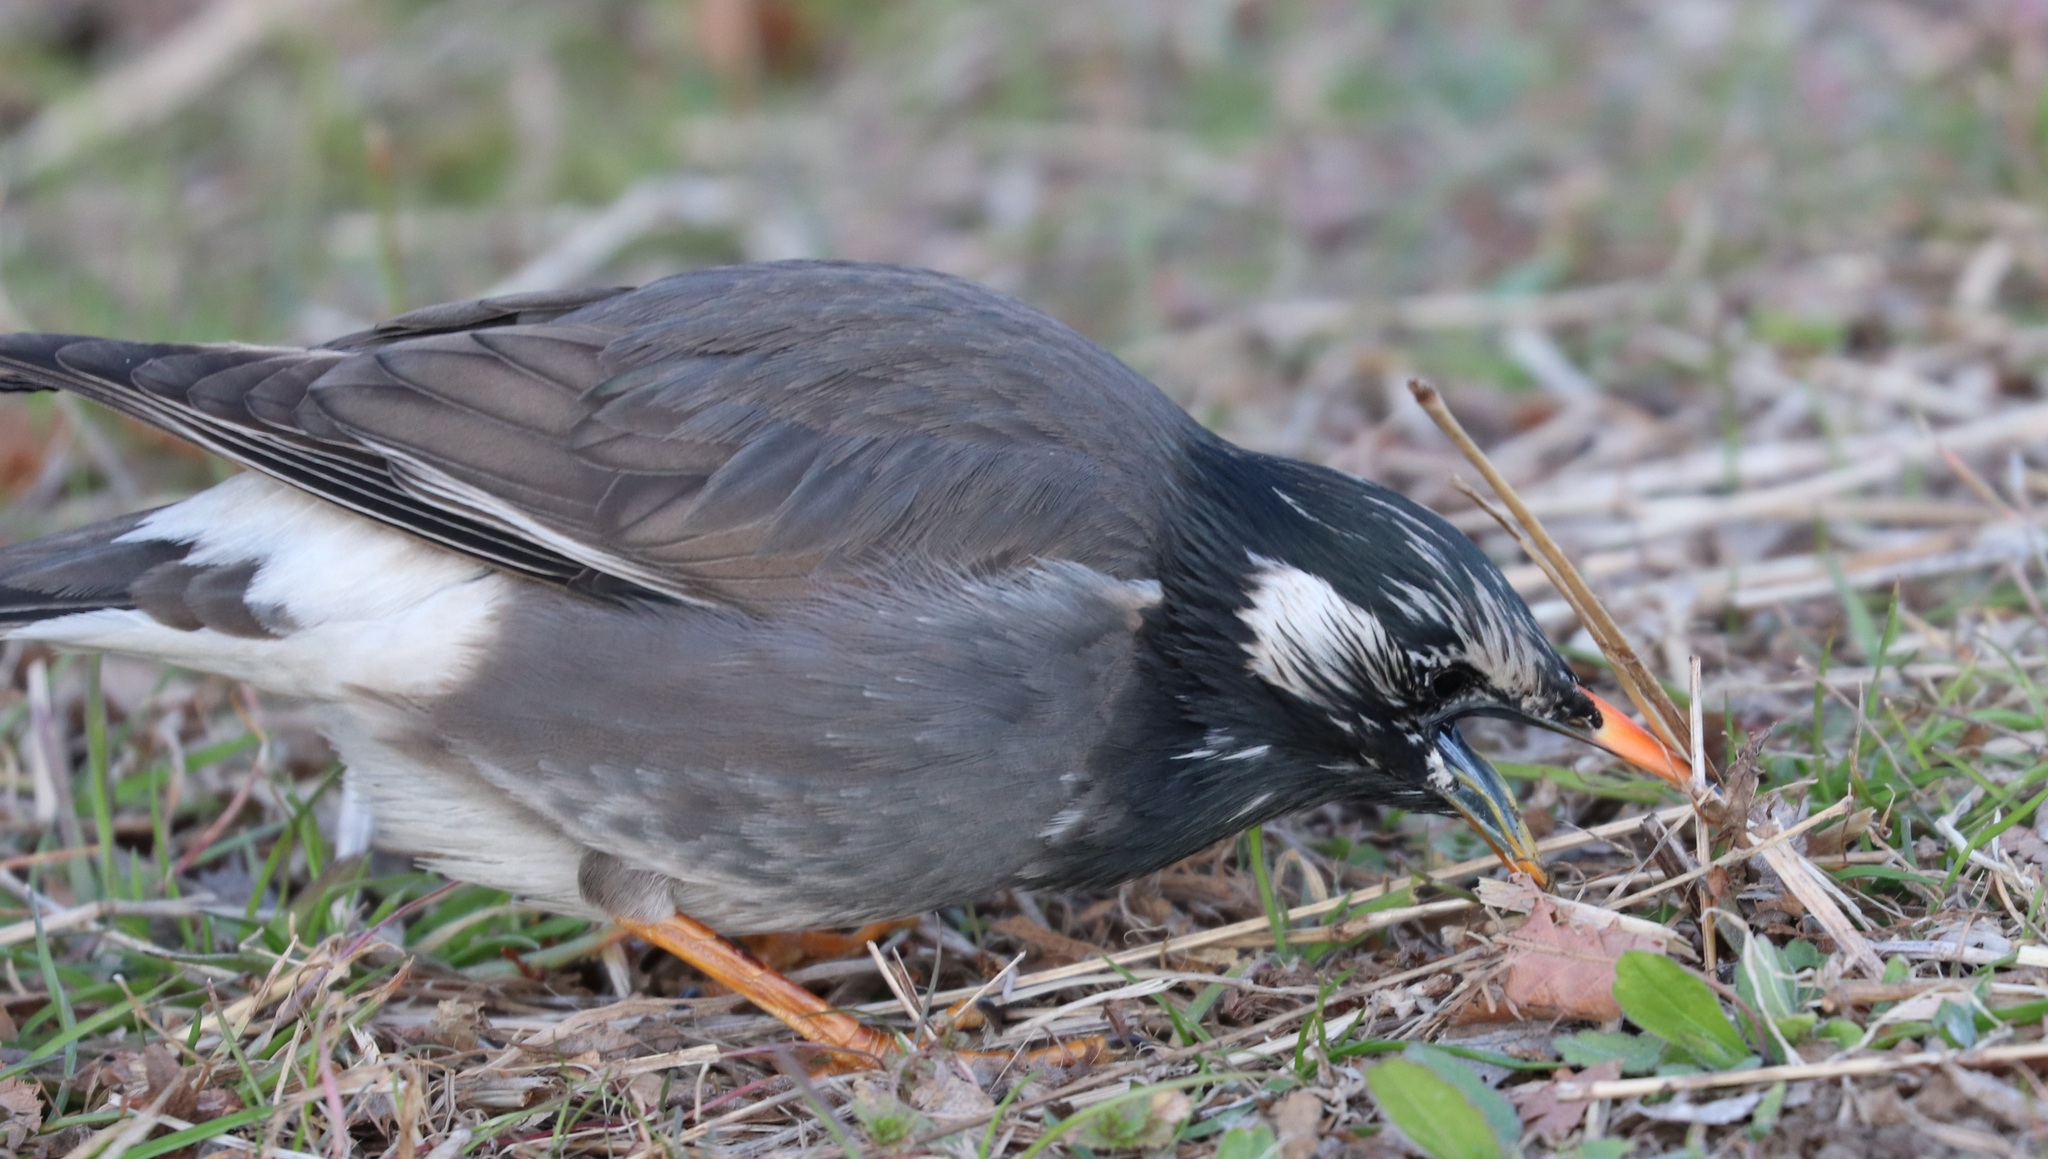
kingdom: Animalia
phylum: Chordata
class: Aves
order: Passeriformes
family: Sturnidae
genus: Spodiopsar
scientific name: Spodiopsar cineraceus
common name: White-cheeked starling
